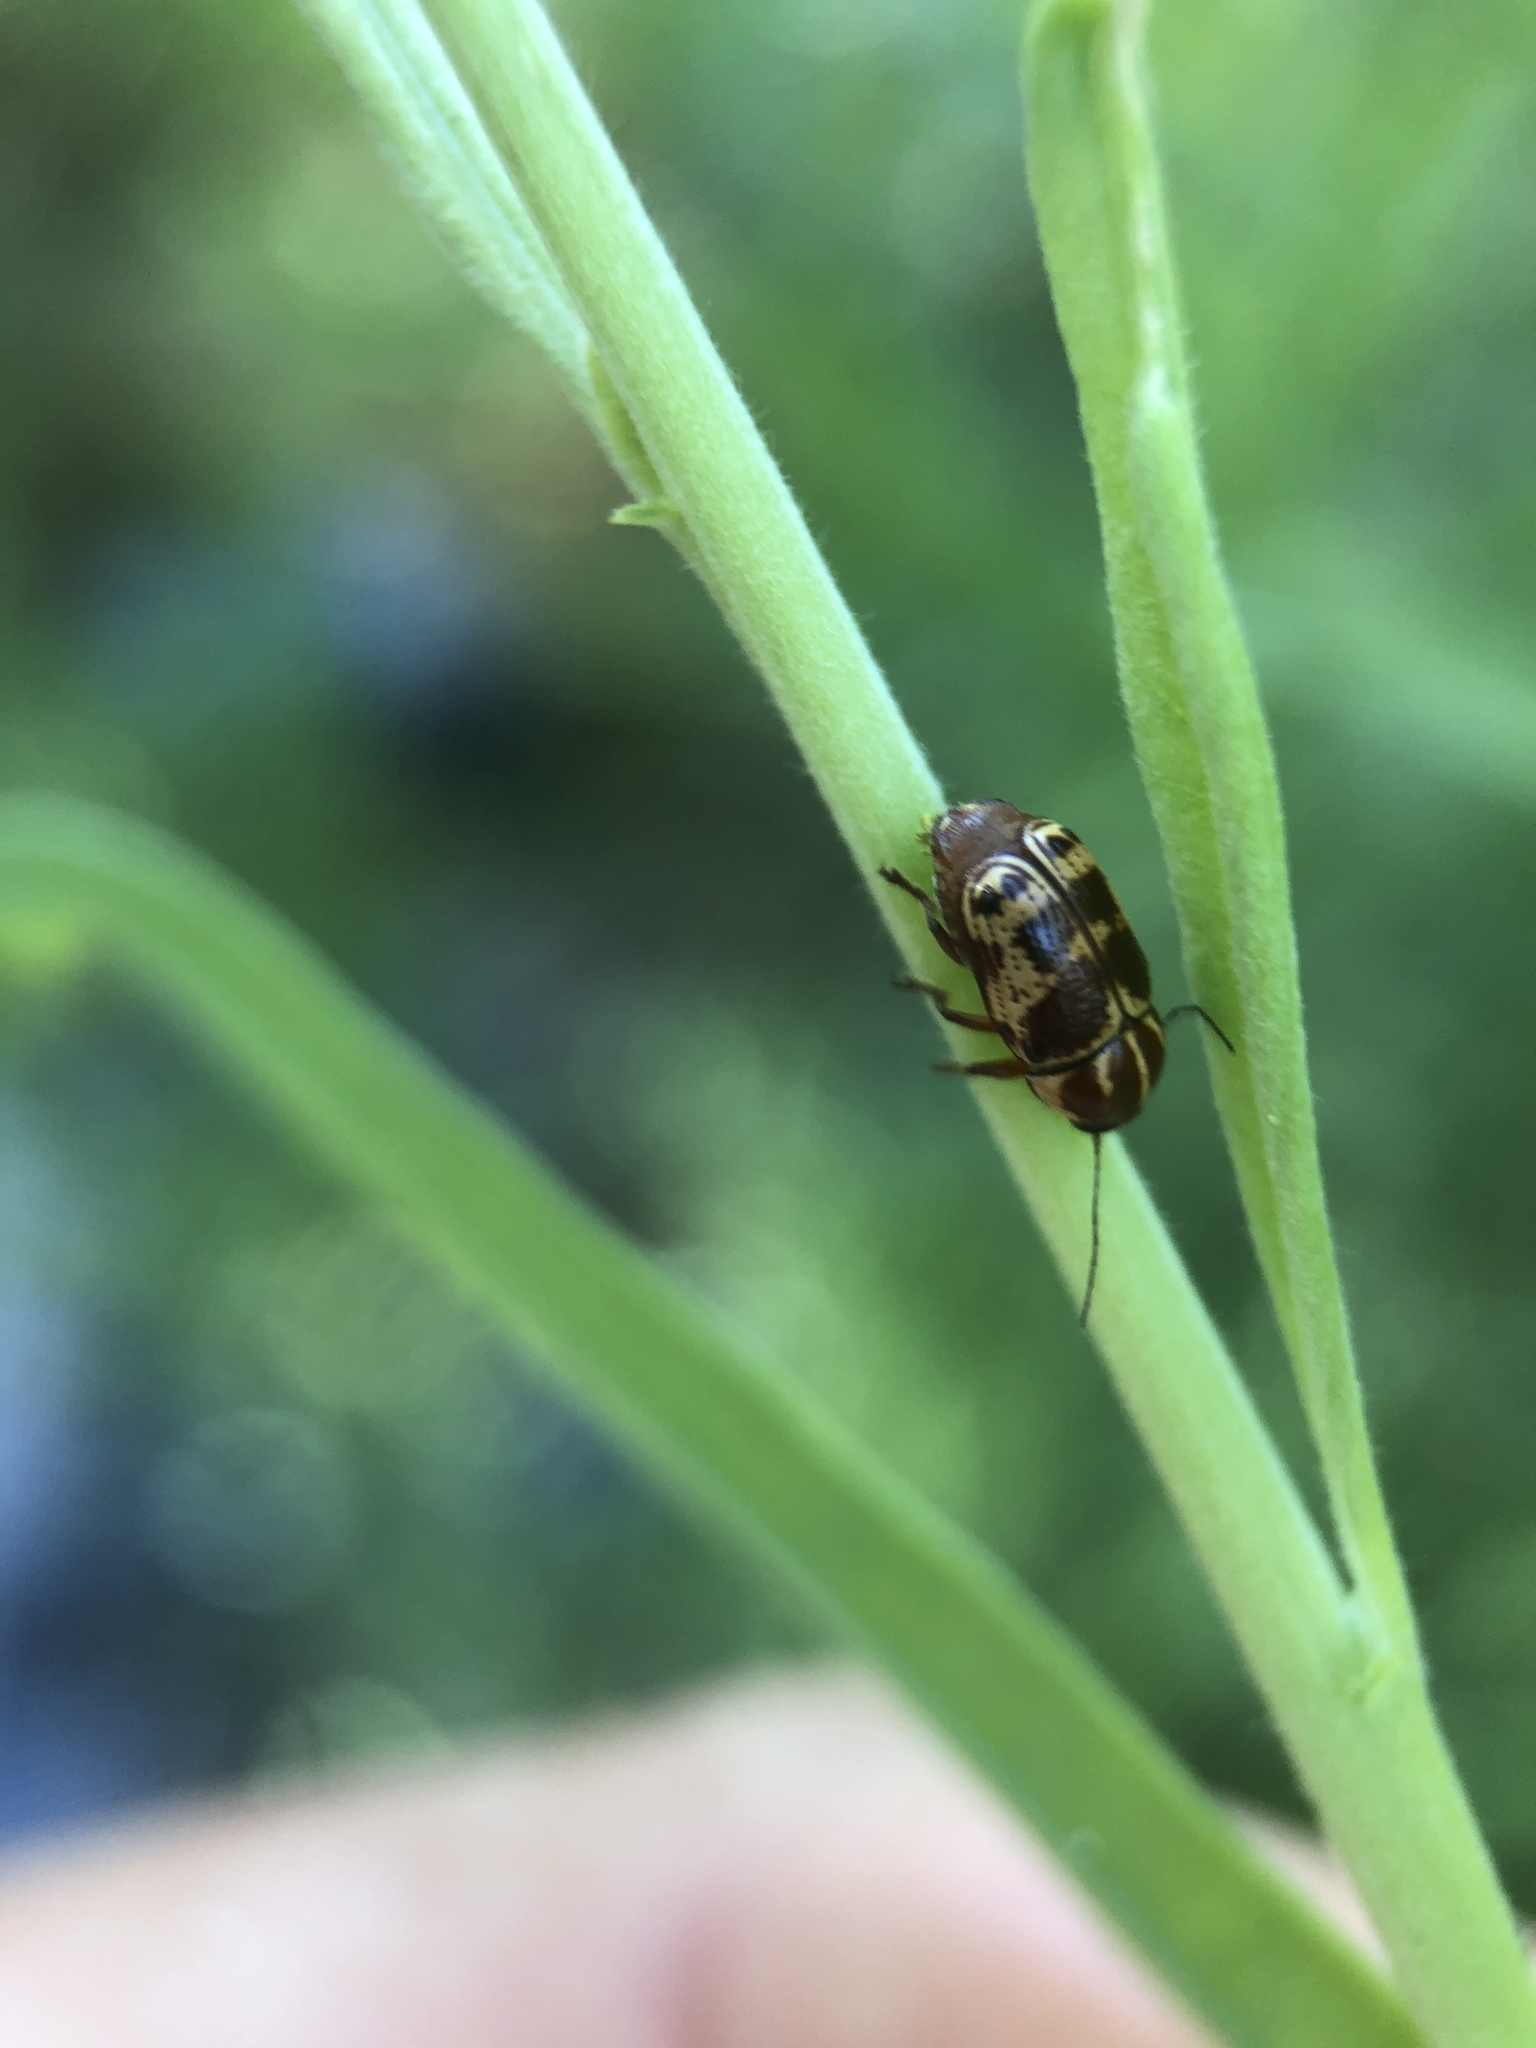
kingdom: Animalia
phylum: Arthropoda
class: Insecta
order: Coleoptera
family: Chrysomelidae
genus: Cryptocephalus
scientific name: Cryptocephalus castaneus
